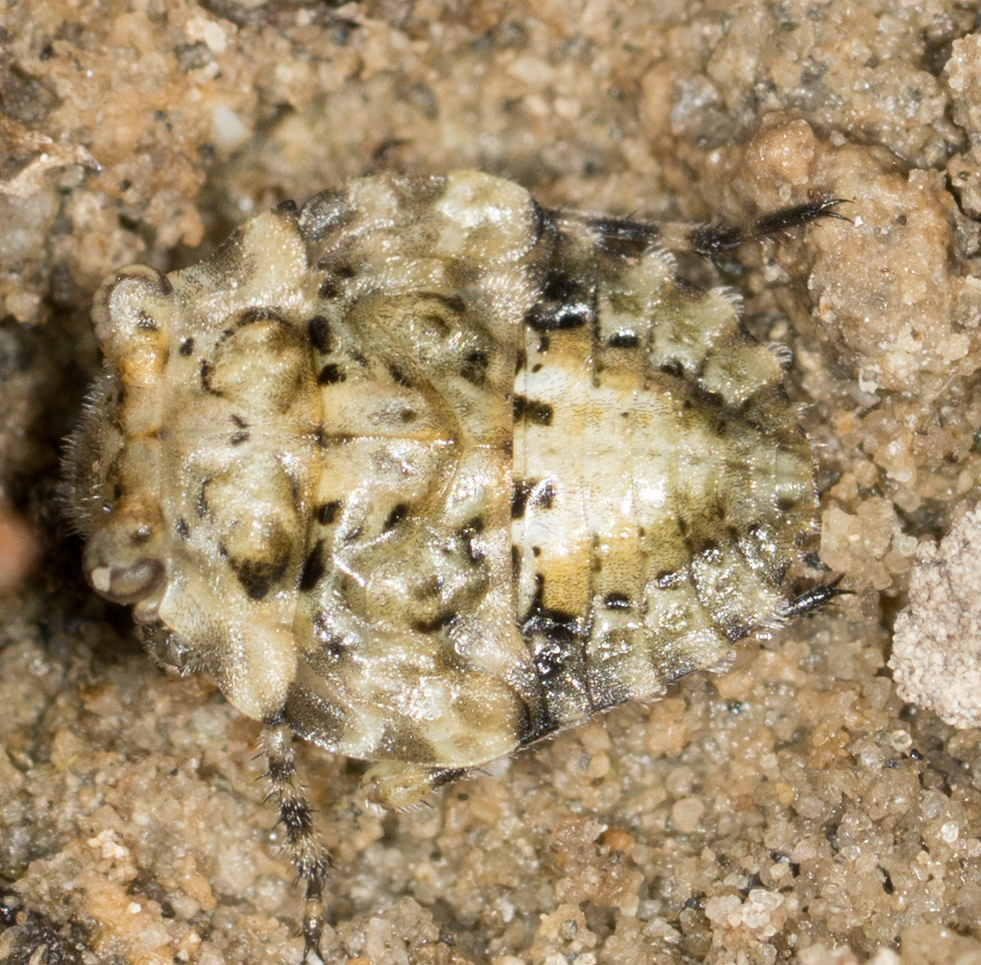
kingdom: Animalia
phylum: Arthropoda
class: Insecta
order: Hemiptera
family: Gelastocoridae
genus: Gelastocoris
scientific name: Gelastocoris oculatus
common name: Toad bug
